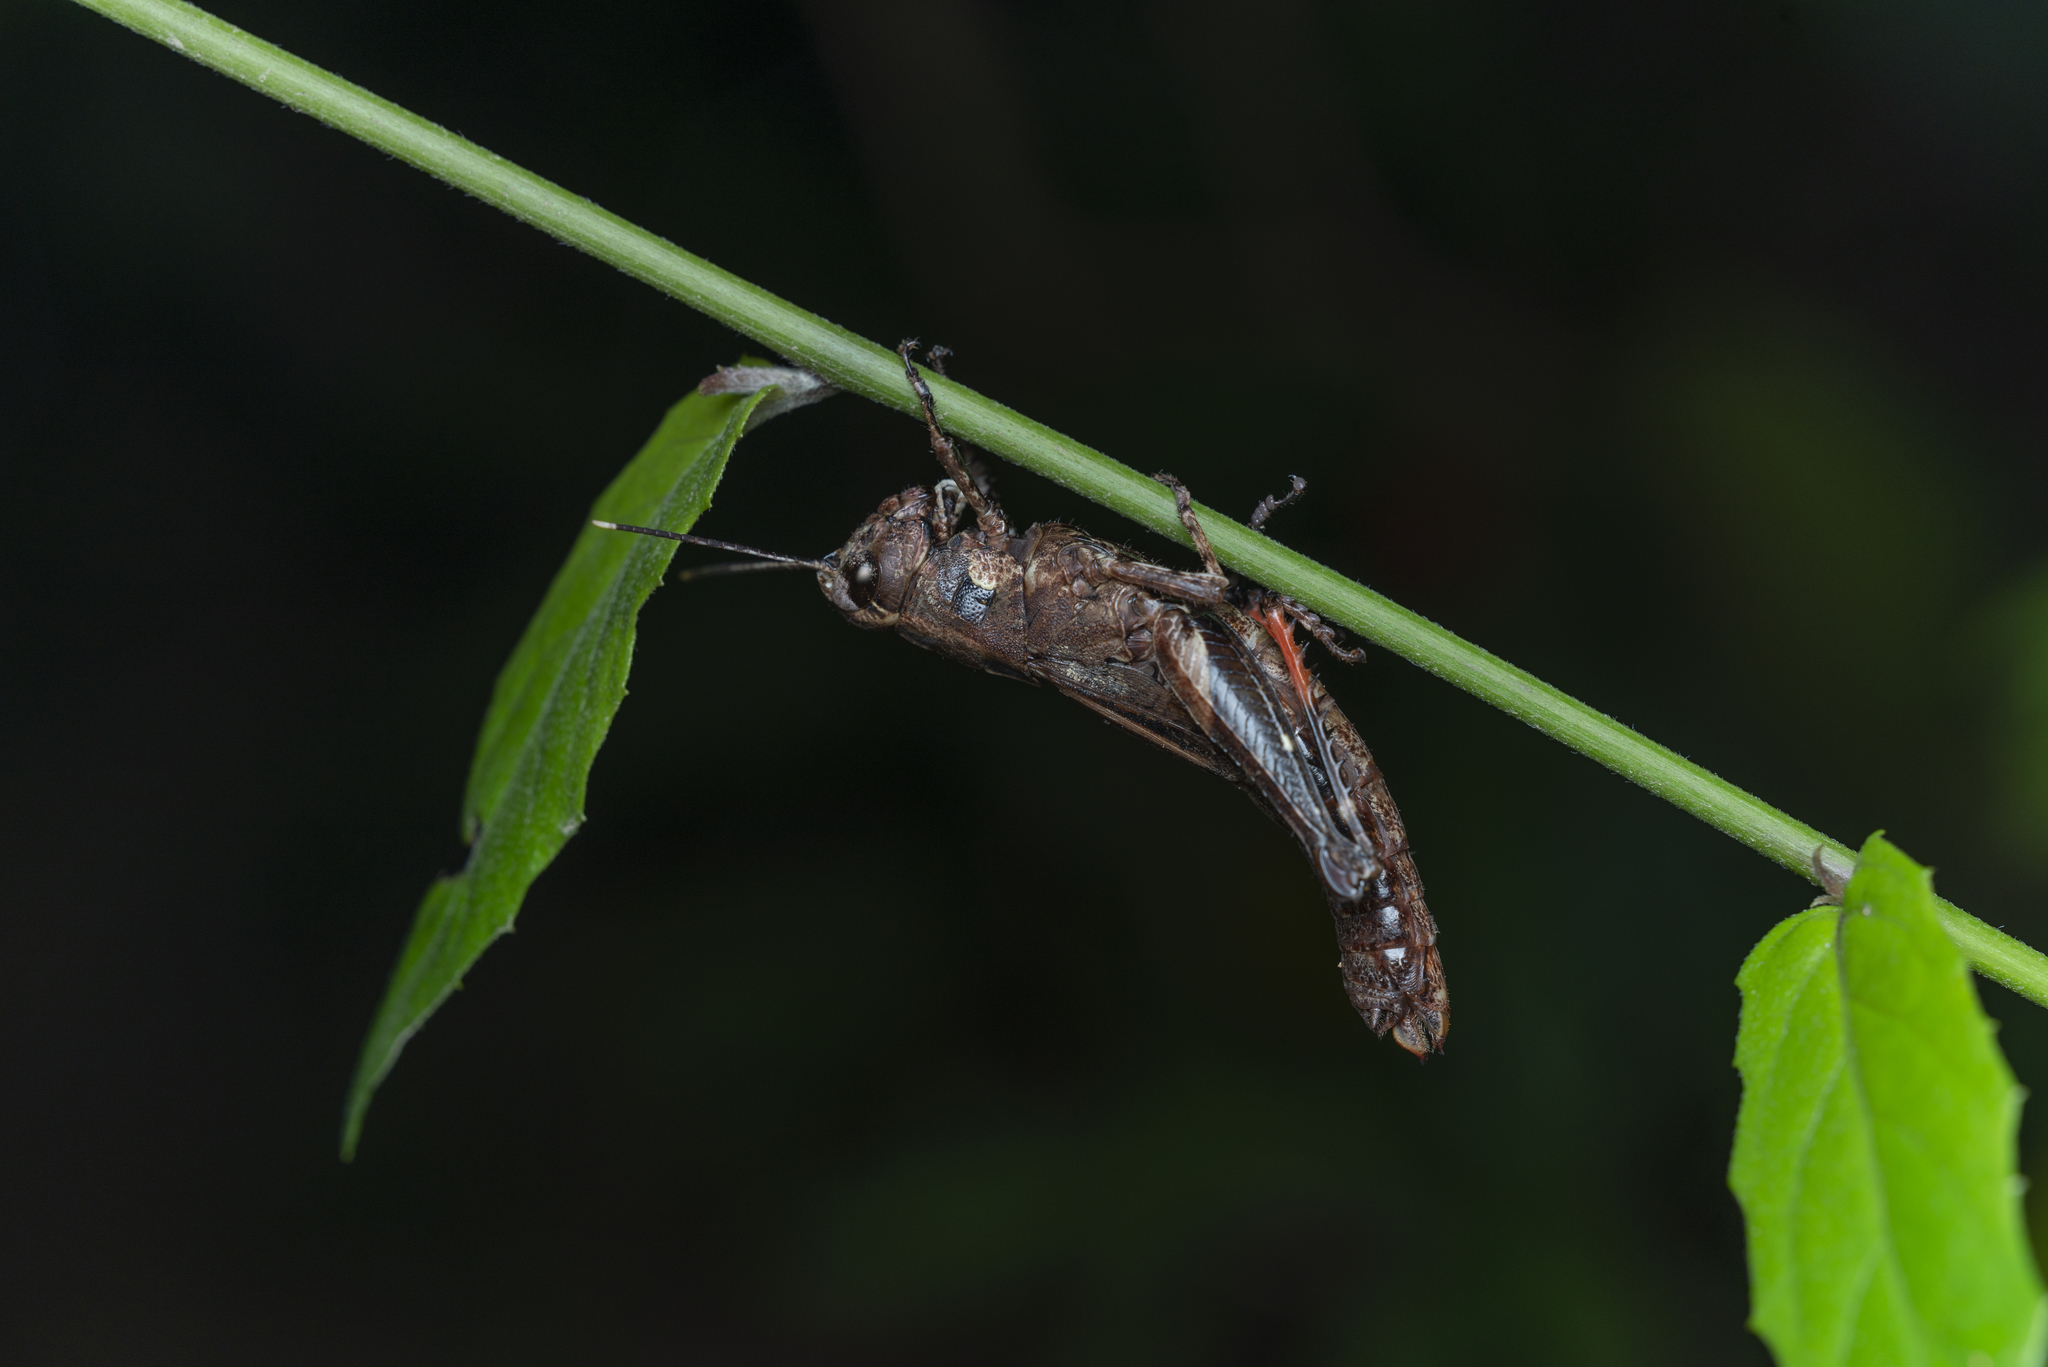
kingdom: Animalia
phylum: Arthropoda
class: Insecta
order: Orthoptera
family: Acrididae
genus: Traulia
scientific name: Traulia orientalis
